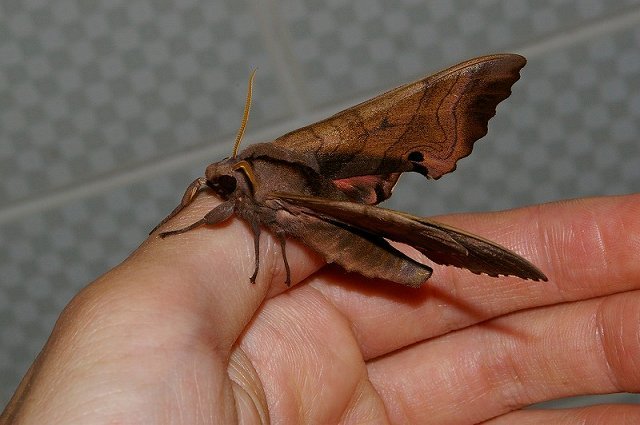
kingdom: Animalia
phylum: Arthropoda
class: Insecta
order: Lepidoptera
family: Sphingidae
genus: Marumba
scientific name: Marumba echephron
